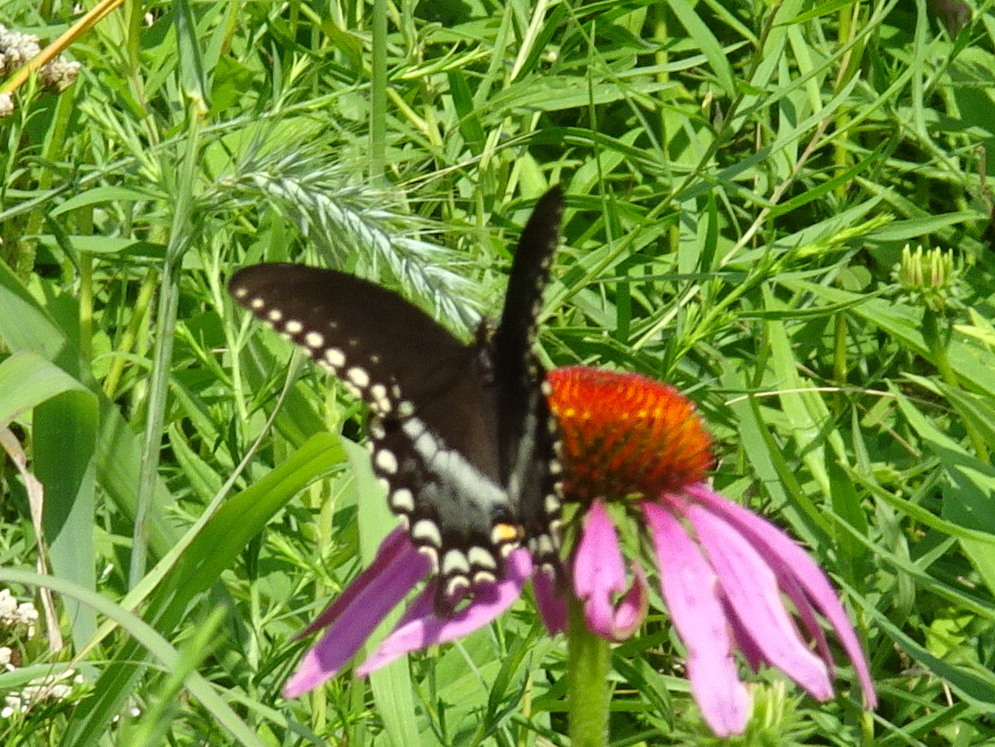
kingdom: Animalia
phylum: Arthropoda
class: Insecta
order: Lepidoptera
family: Papilionidae
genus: Papilio
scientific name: Papilio troilus
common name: Spicebush swallowtail
